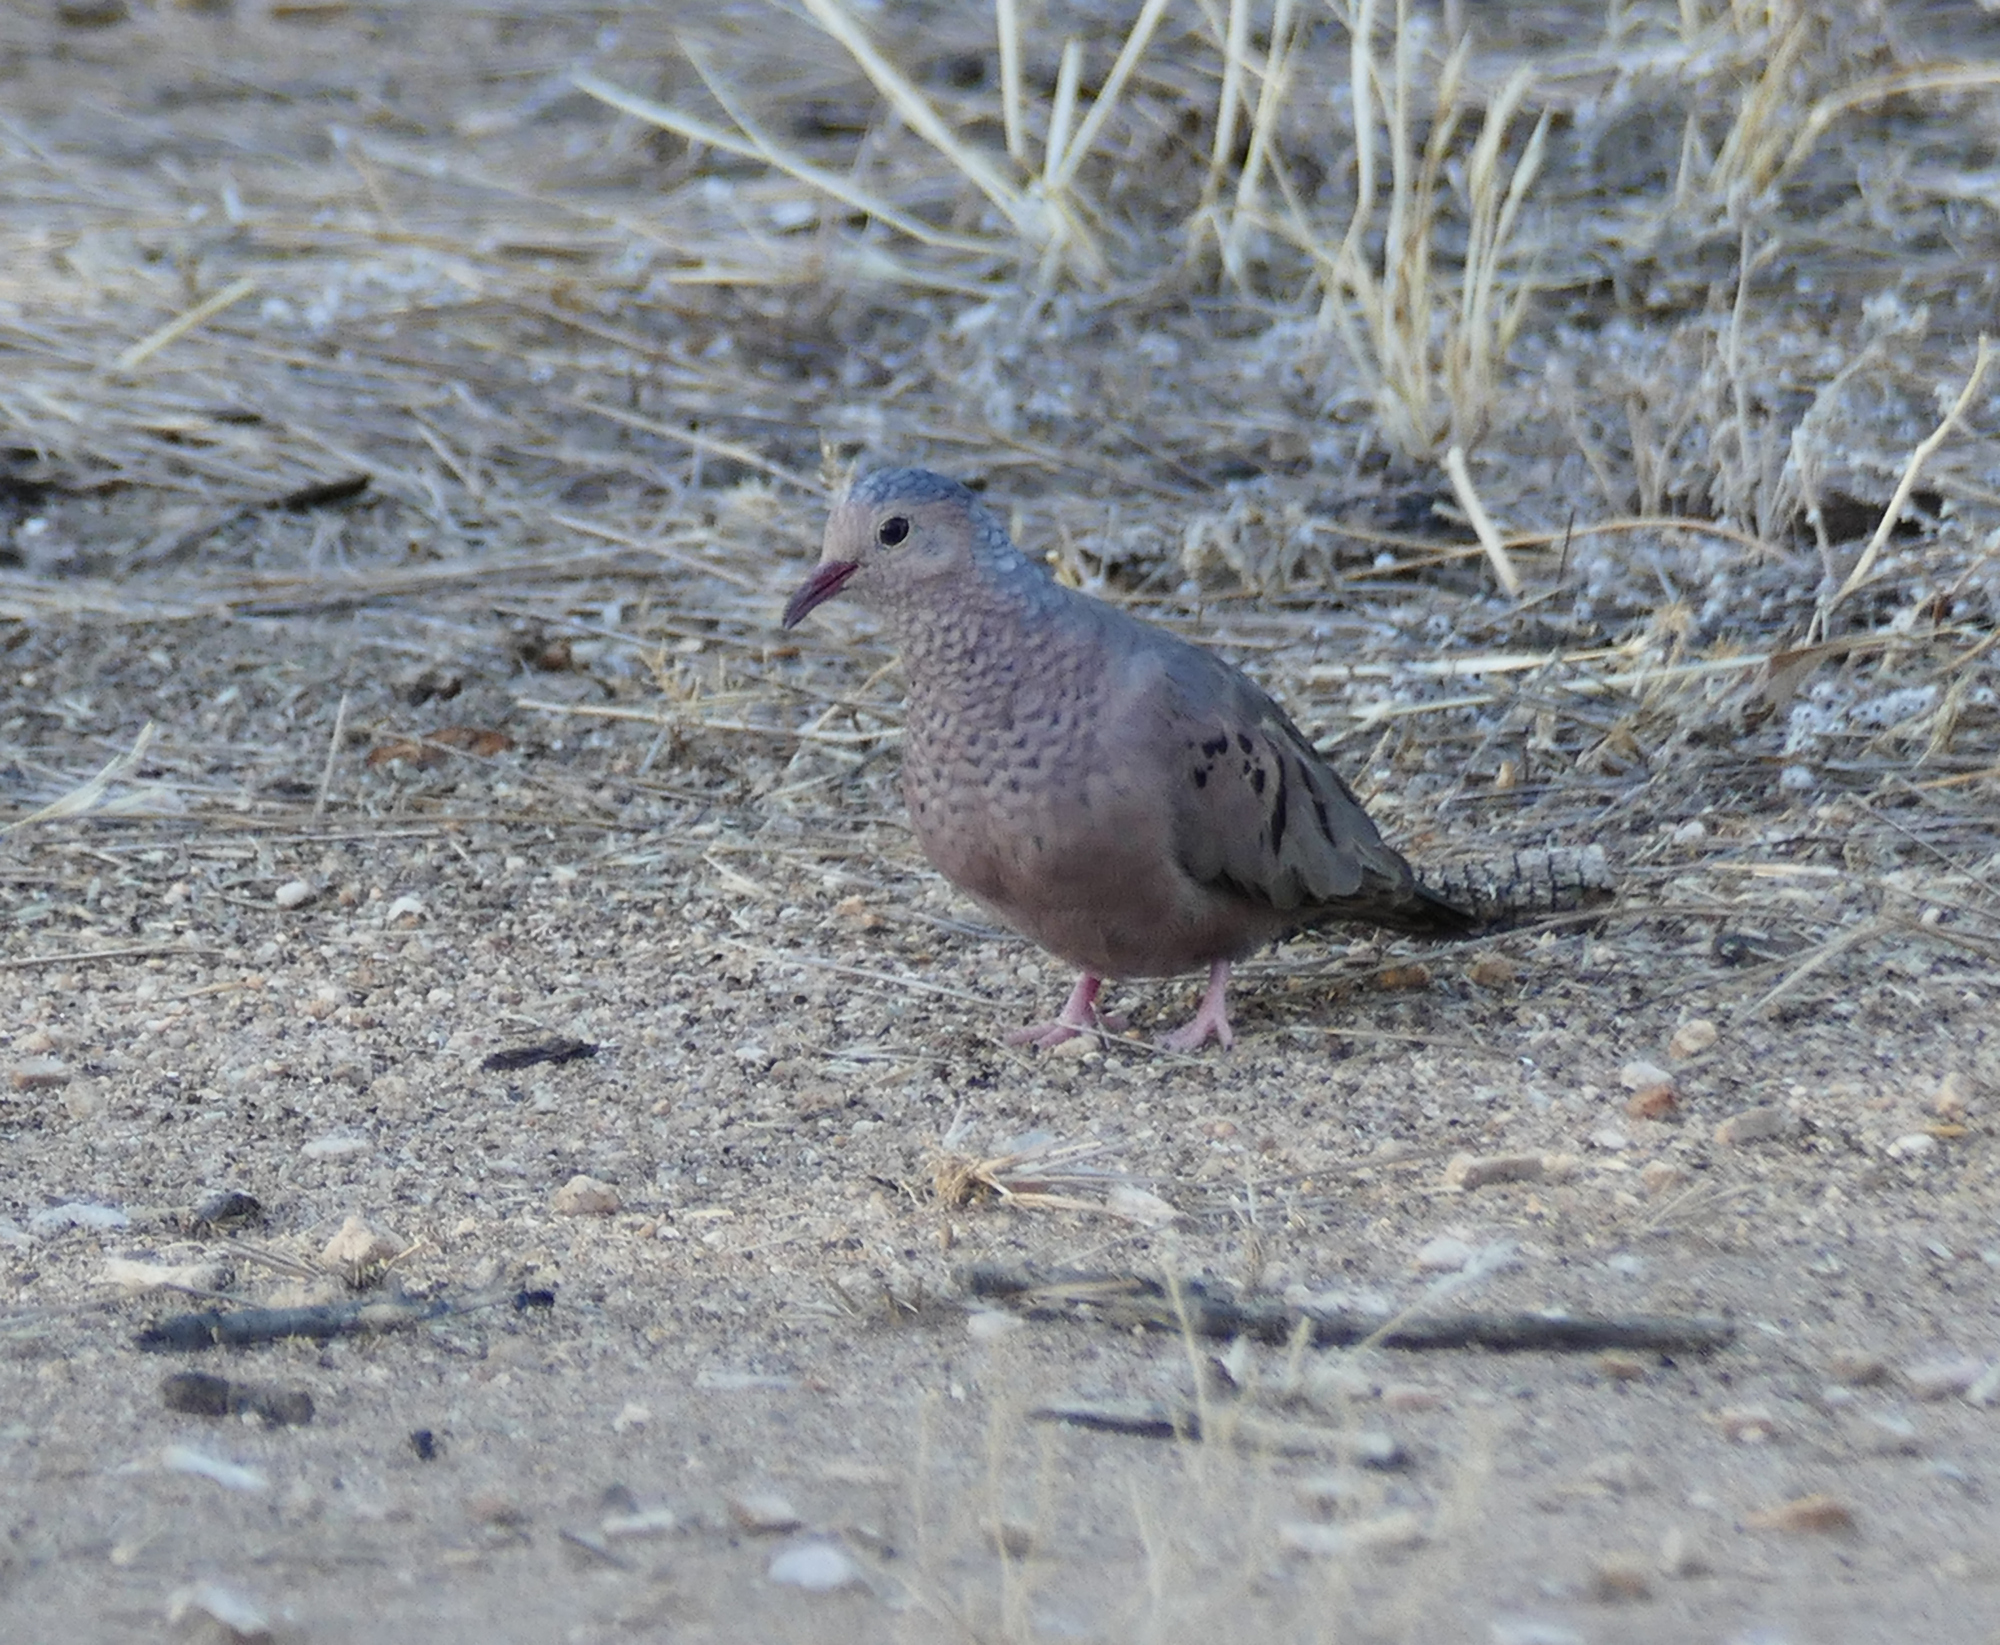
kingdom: Animalia
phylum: Chordata
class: Aves
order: Columbiformes
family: Columbidae
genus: Columbina
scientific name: Columbina passerina
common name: Common ground-dove
